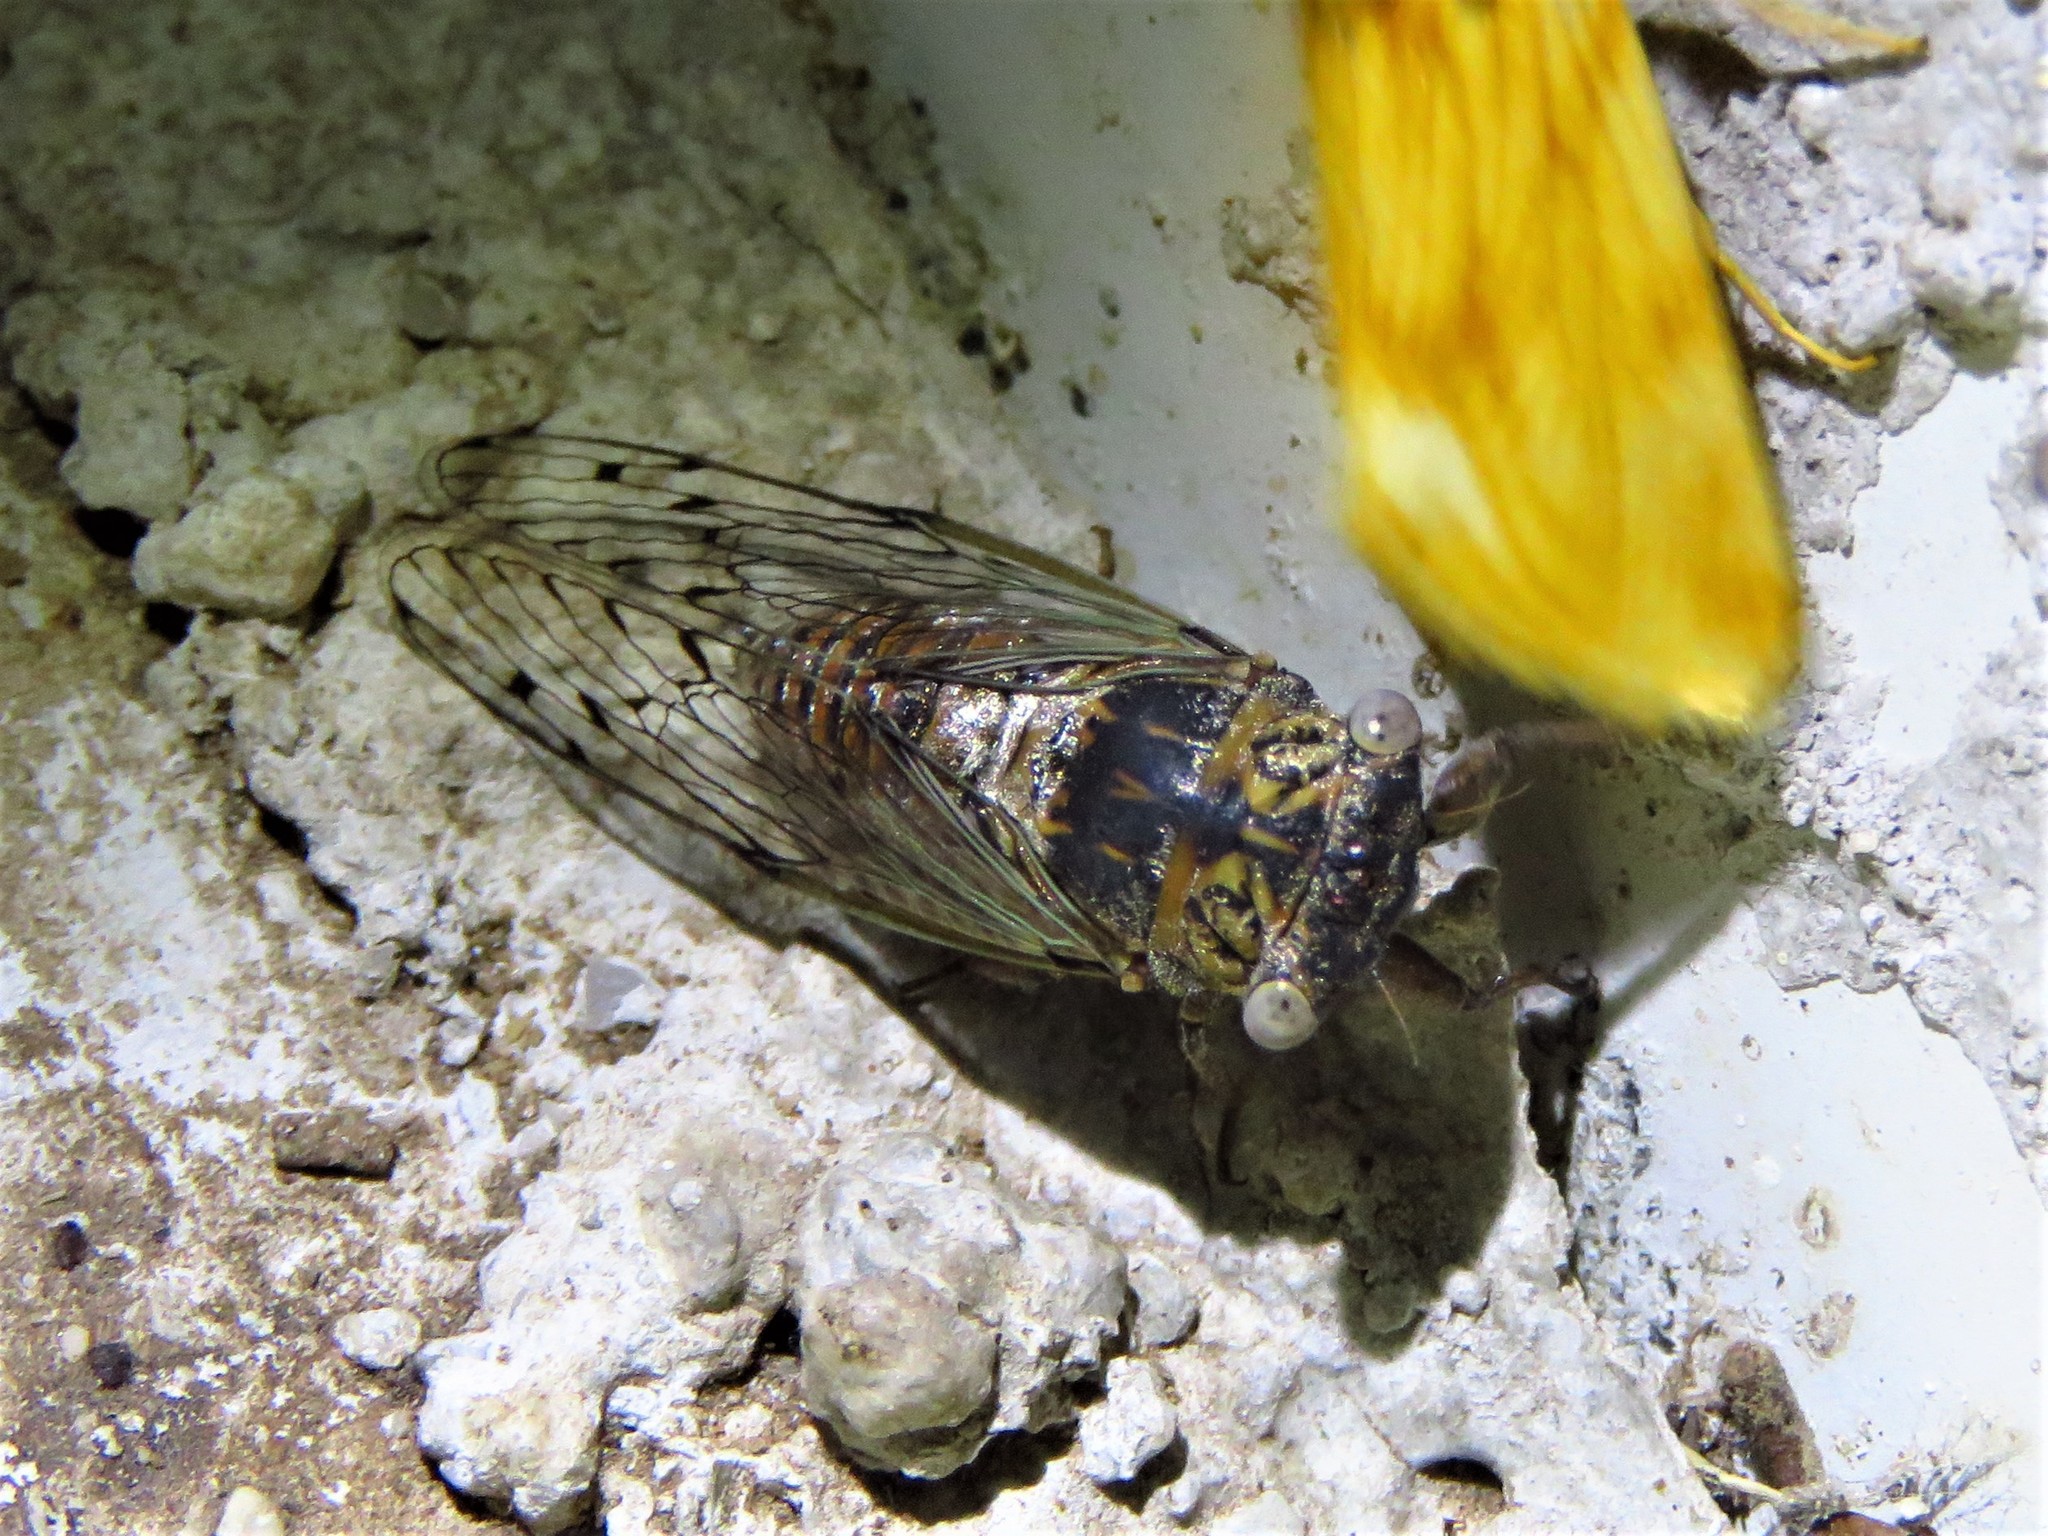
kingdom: Animalia
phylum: Arthropoda
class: Insecta
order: Hemiptera
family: Cicadidae
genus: Pacarina
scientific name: Pacarina puella
